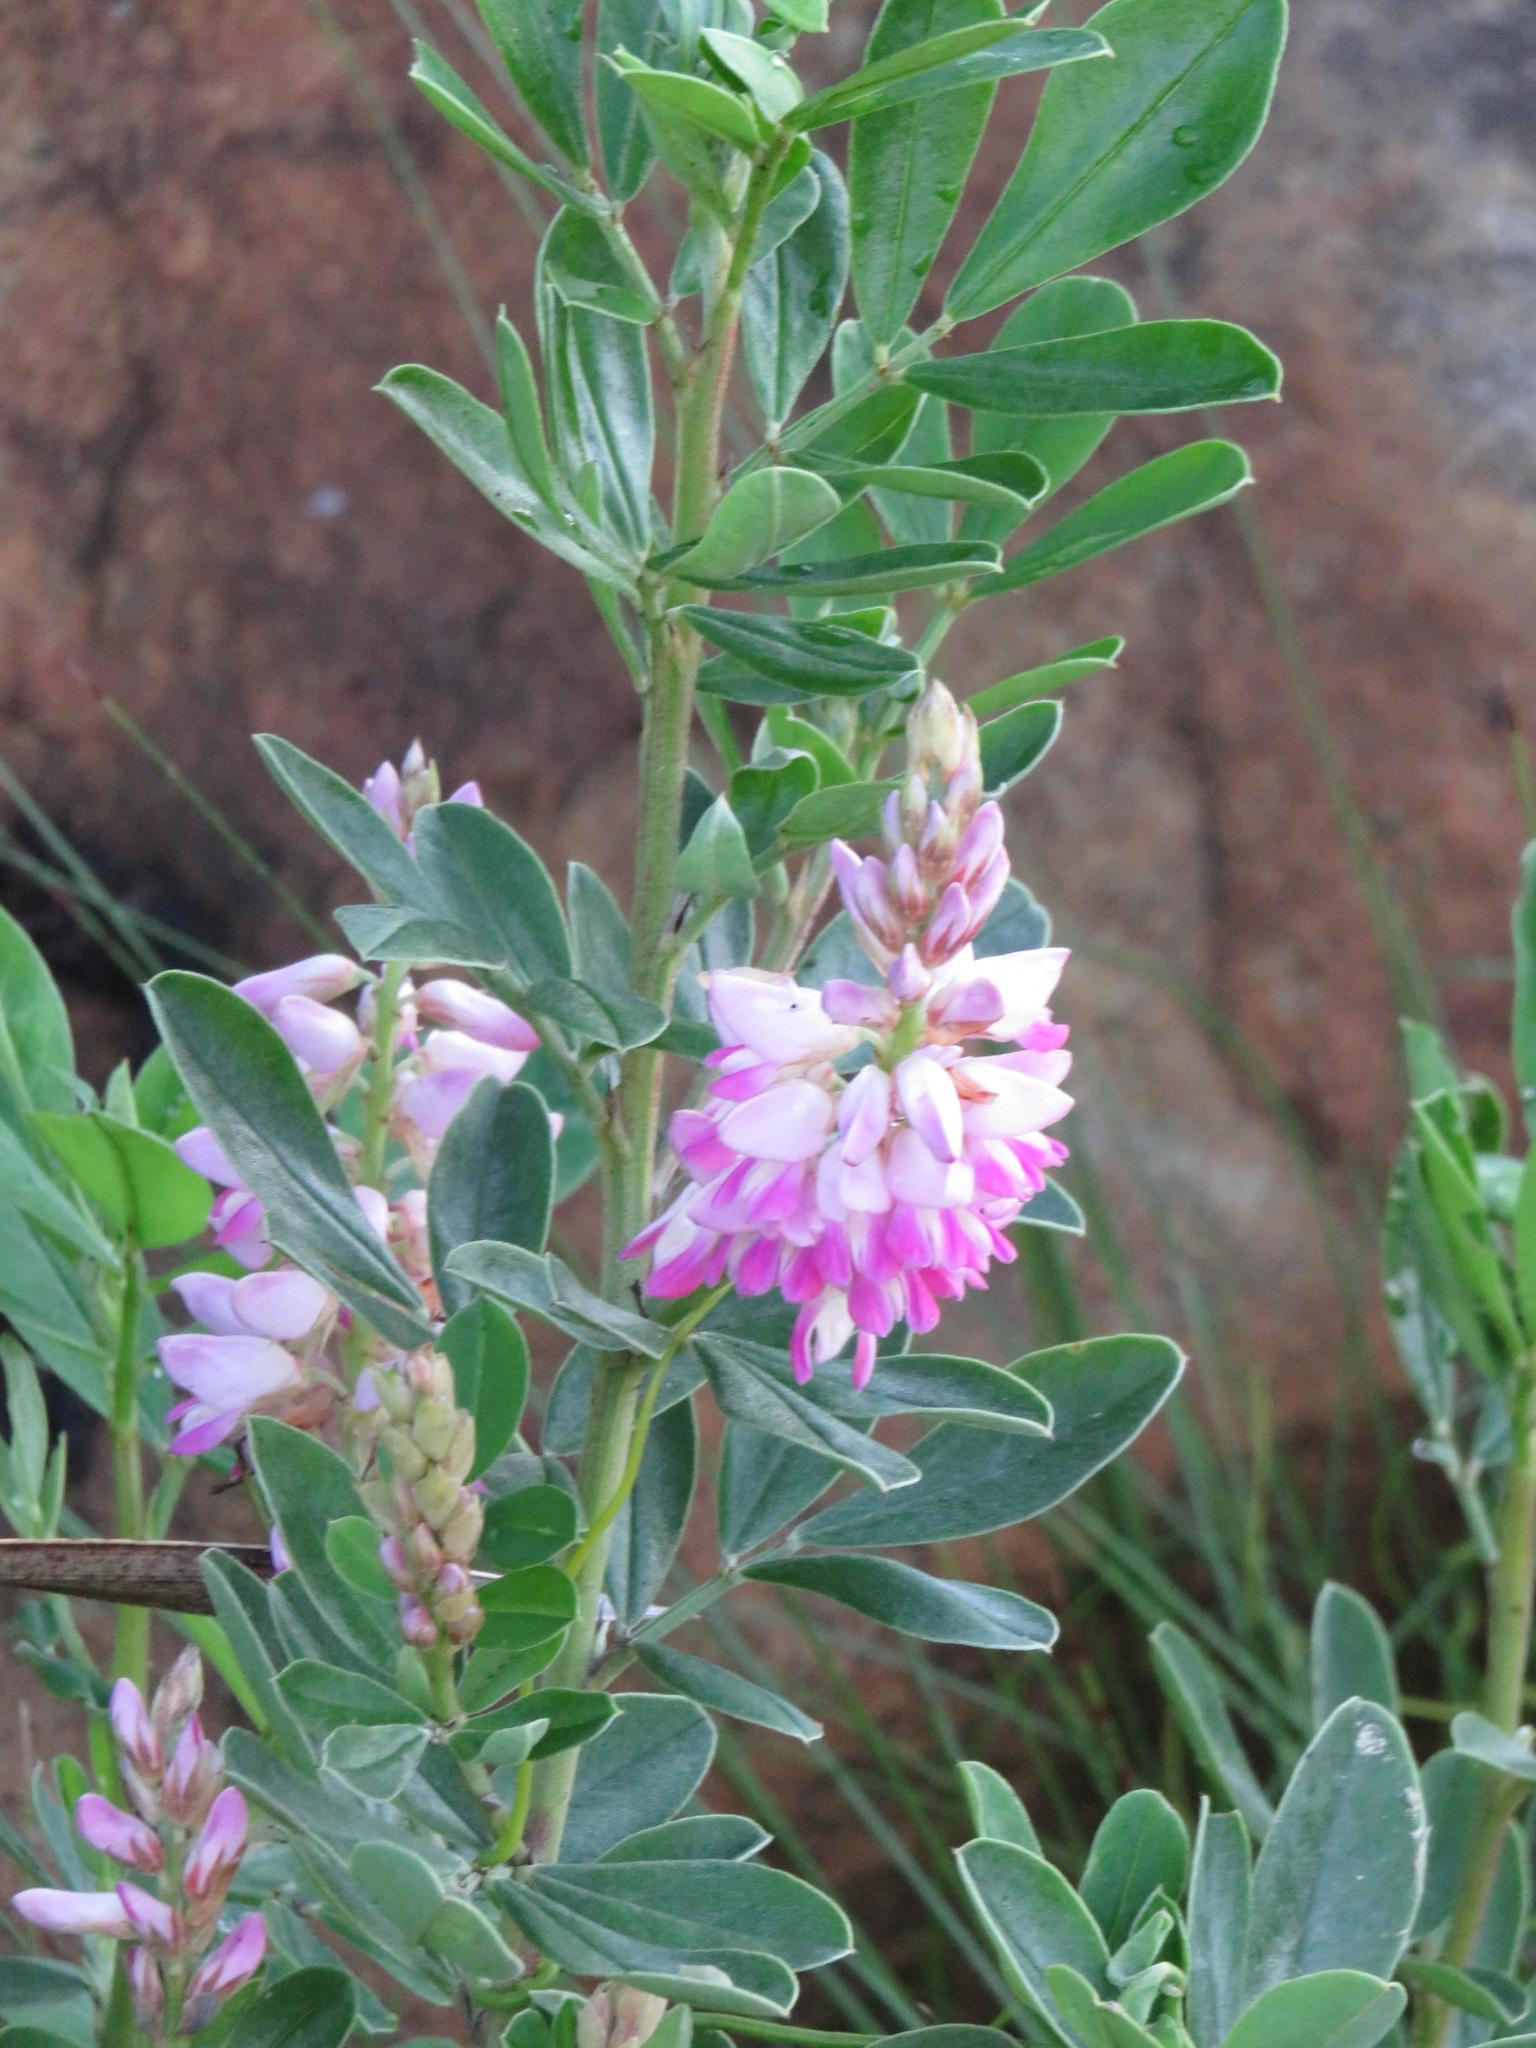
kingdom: Plantae
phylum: Tracheophyta
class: Magnoliopsida
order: Fabales
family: Fabaceae
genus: Indigofera
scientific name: Indigofera cytisoides
